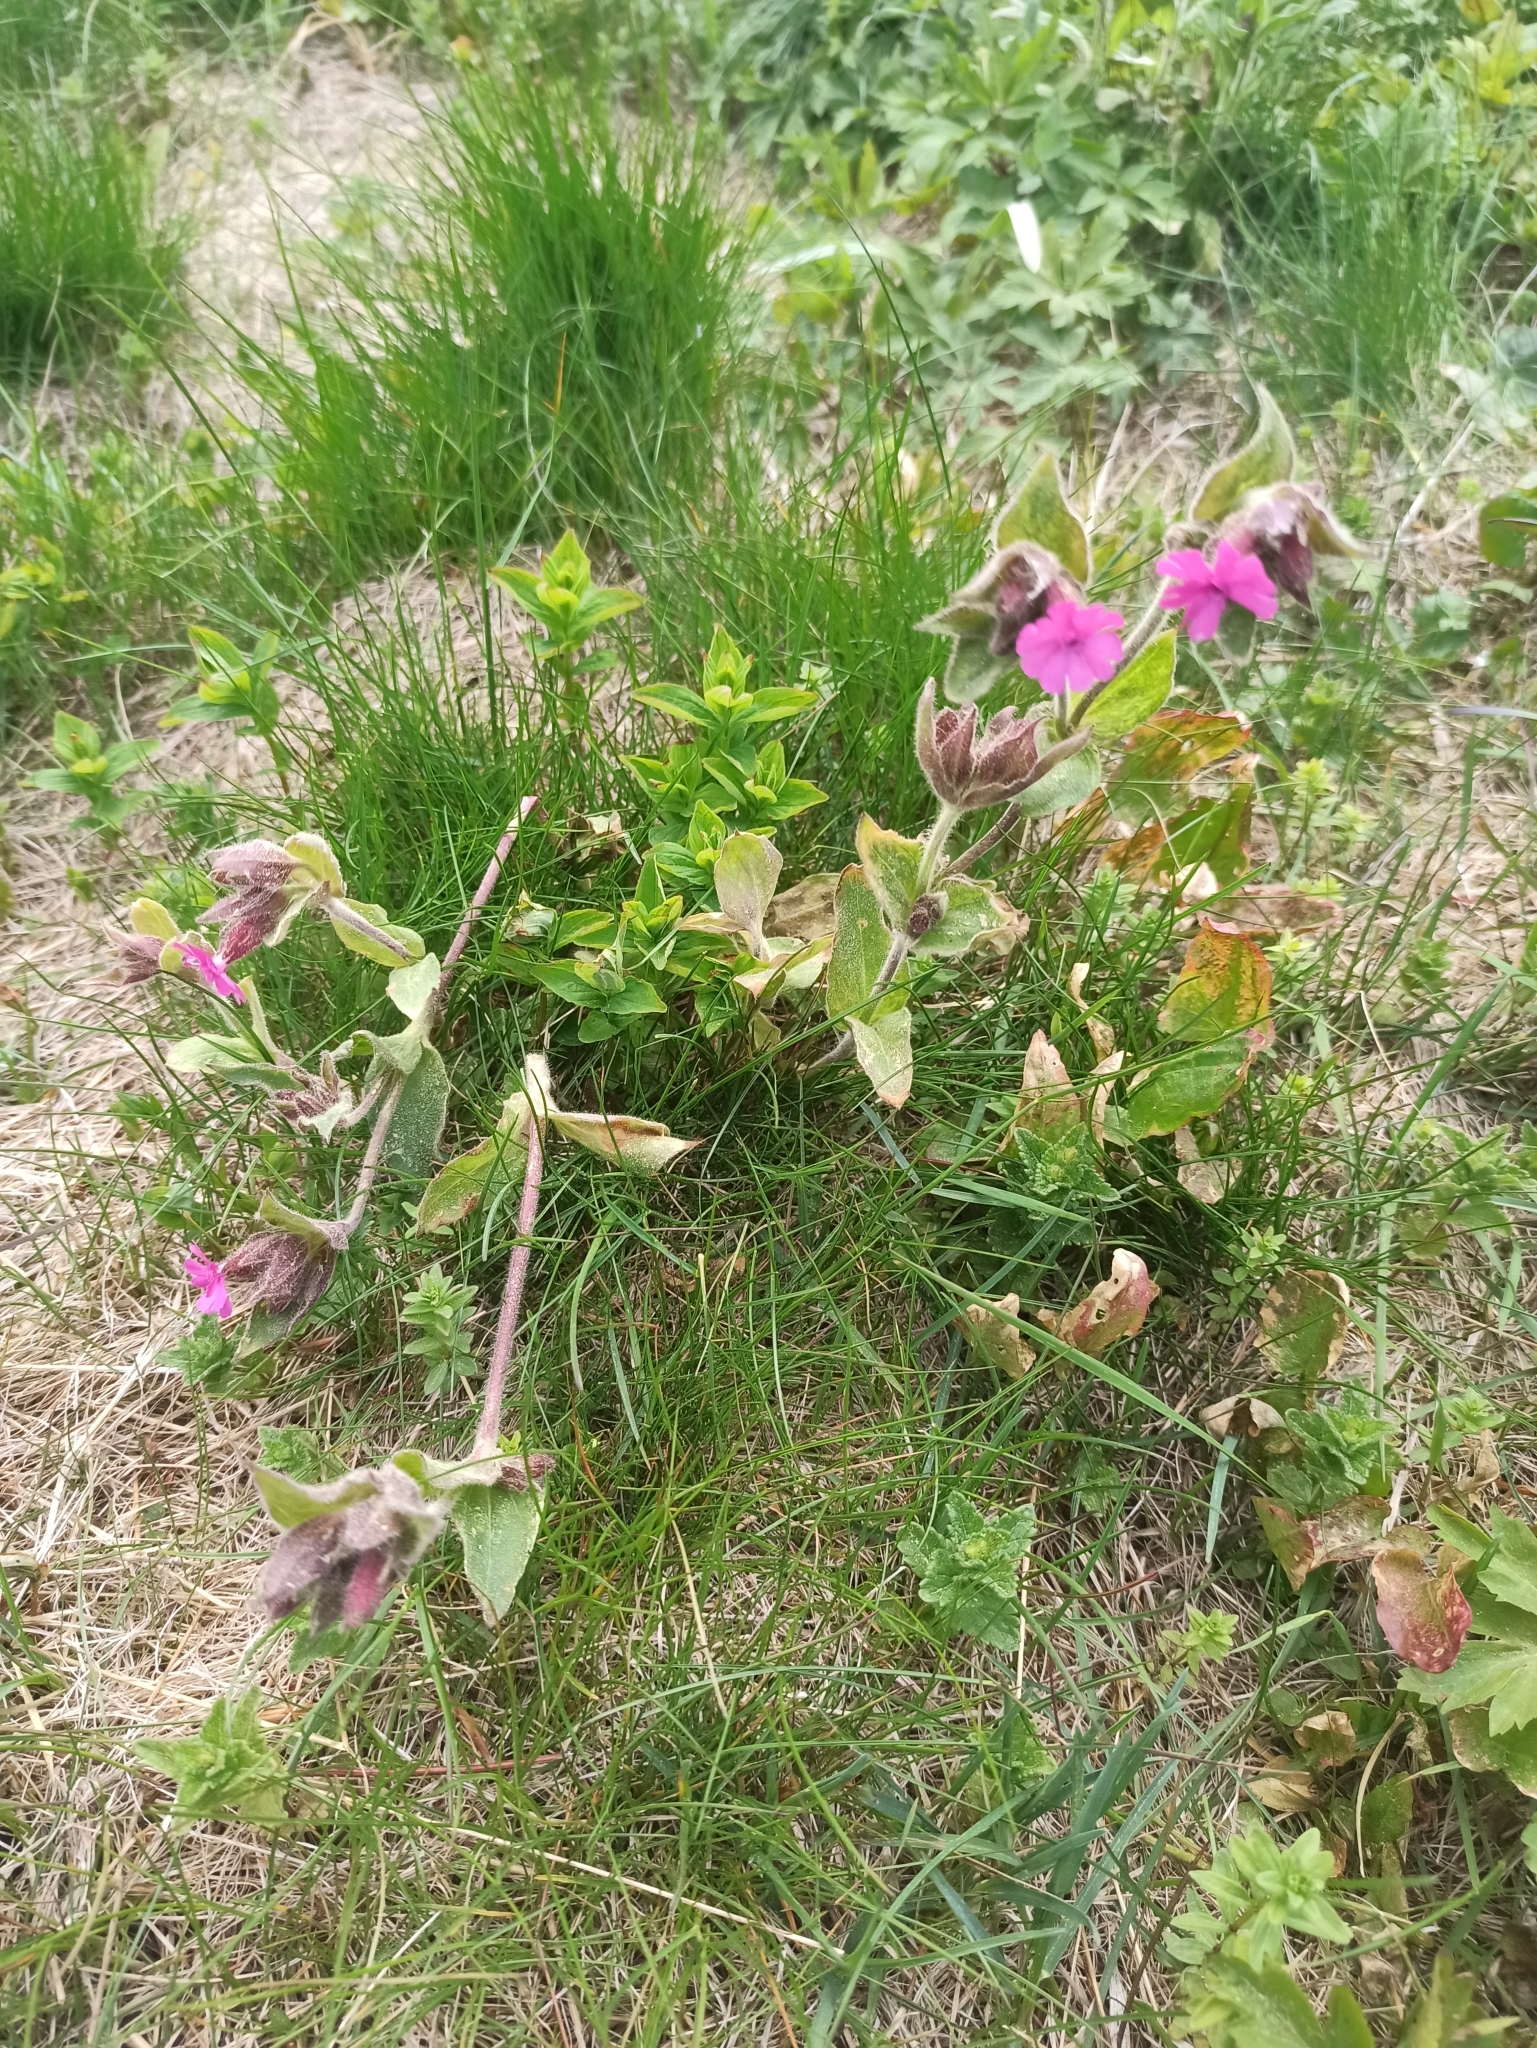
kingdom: Plantae
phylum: Tracheophyta
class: Magnoliopsida
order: Caryophyllales
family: Caryophyllaceae
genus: Silene
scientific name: Silene dioica
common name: Red campion
